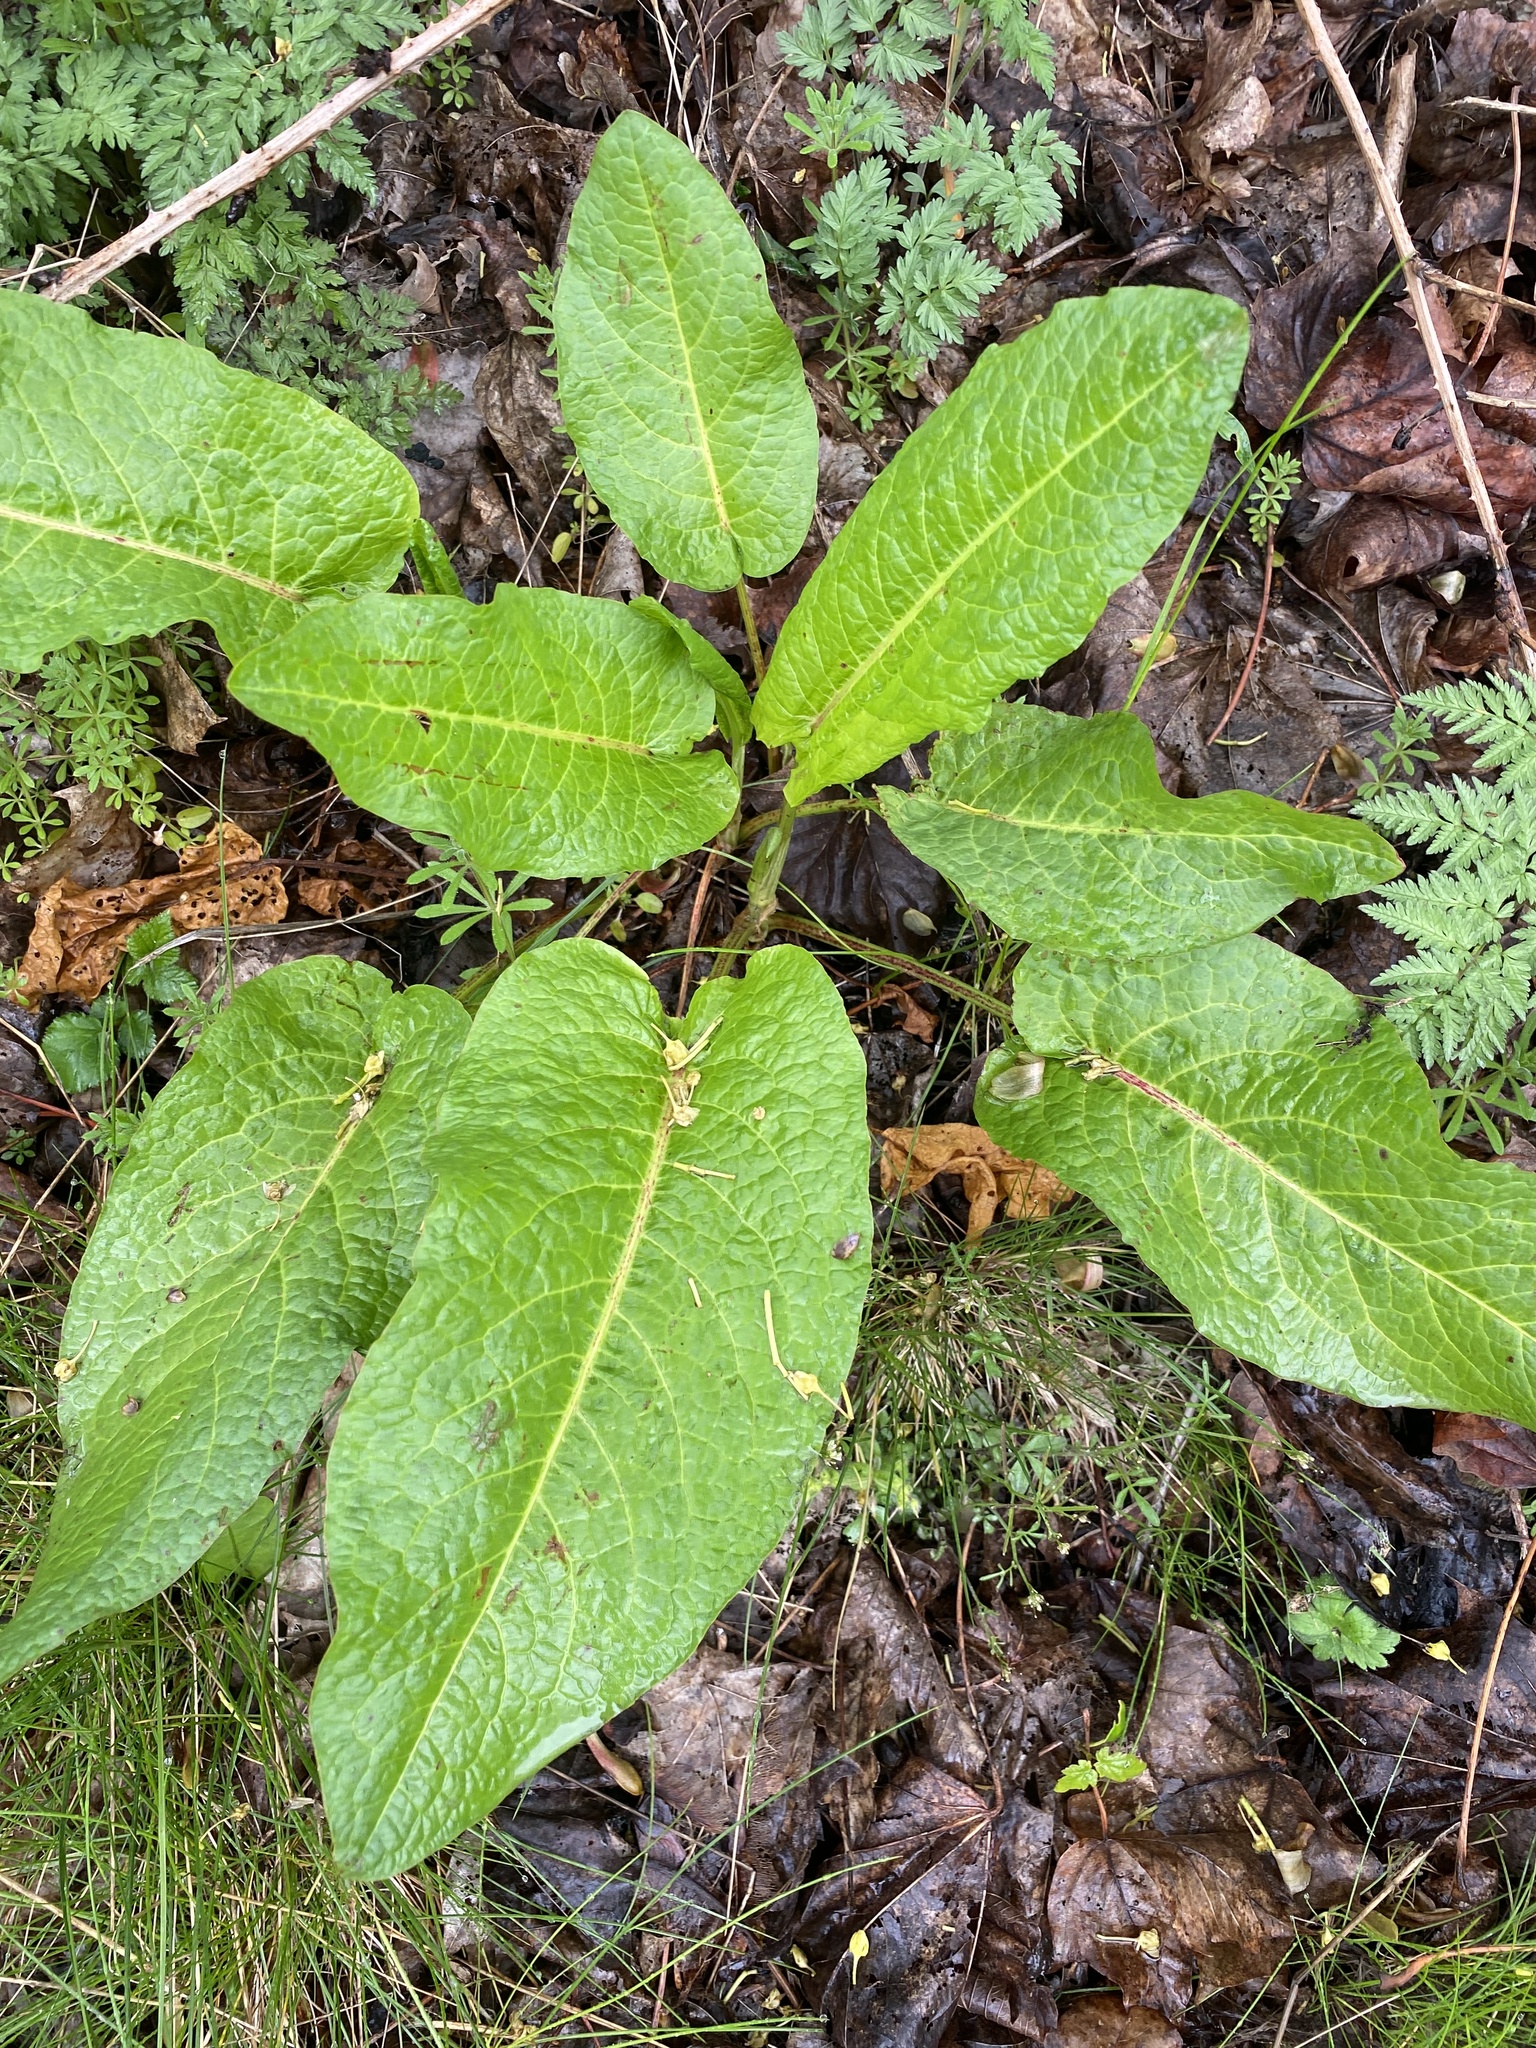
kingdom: Plantae
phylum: Tracheophyta
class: Magnoliopsida
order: Caryophyllales
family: Polygonaceae
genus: Rumex
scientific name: Rumex obtusifolius
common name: Bitter dock
